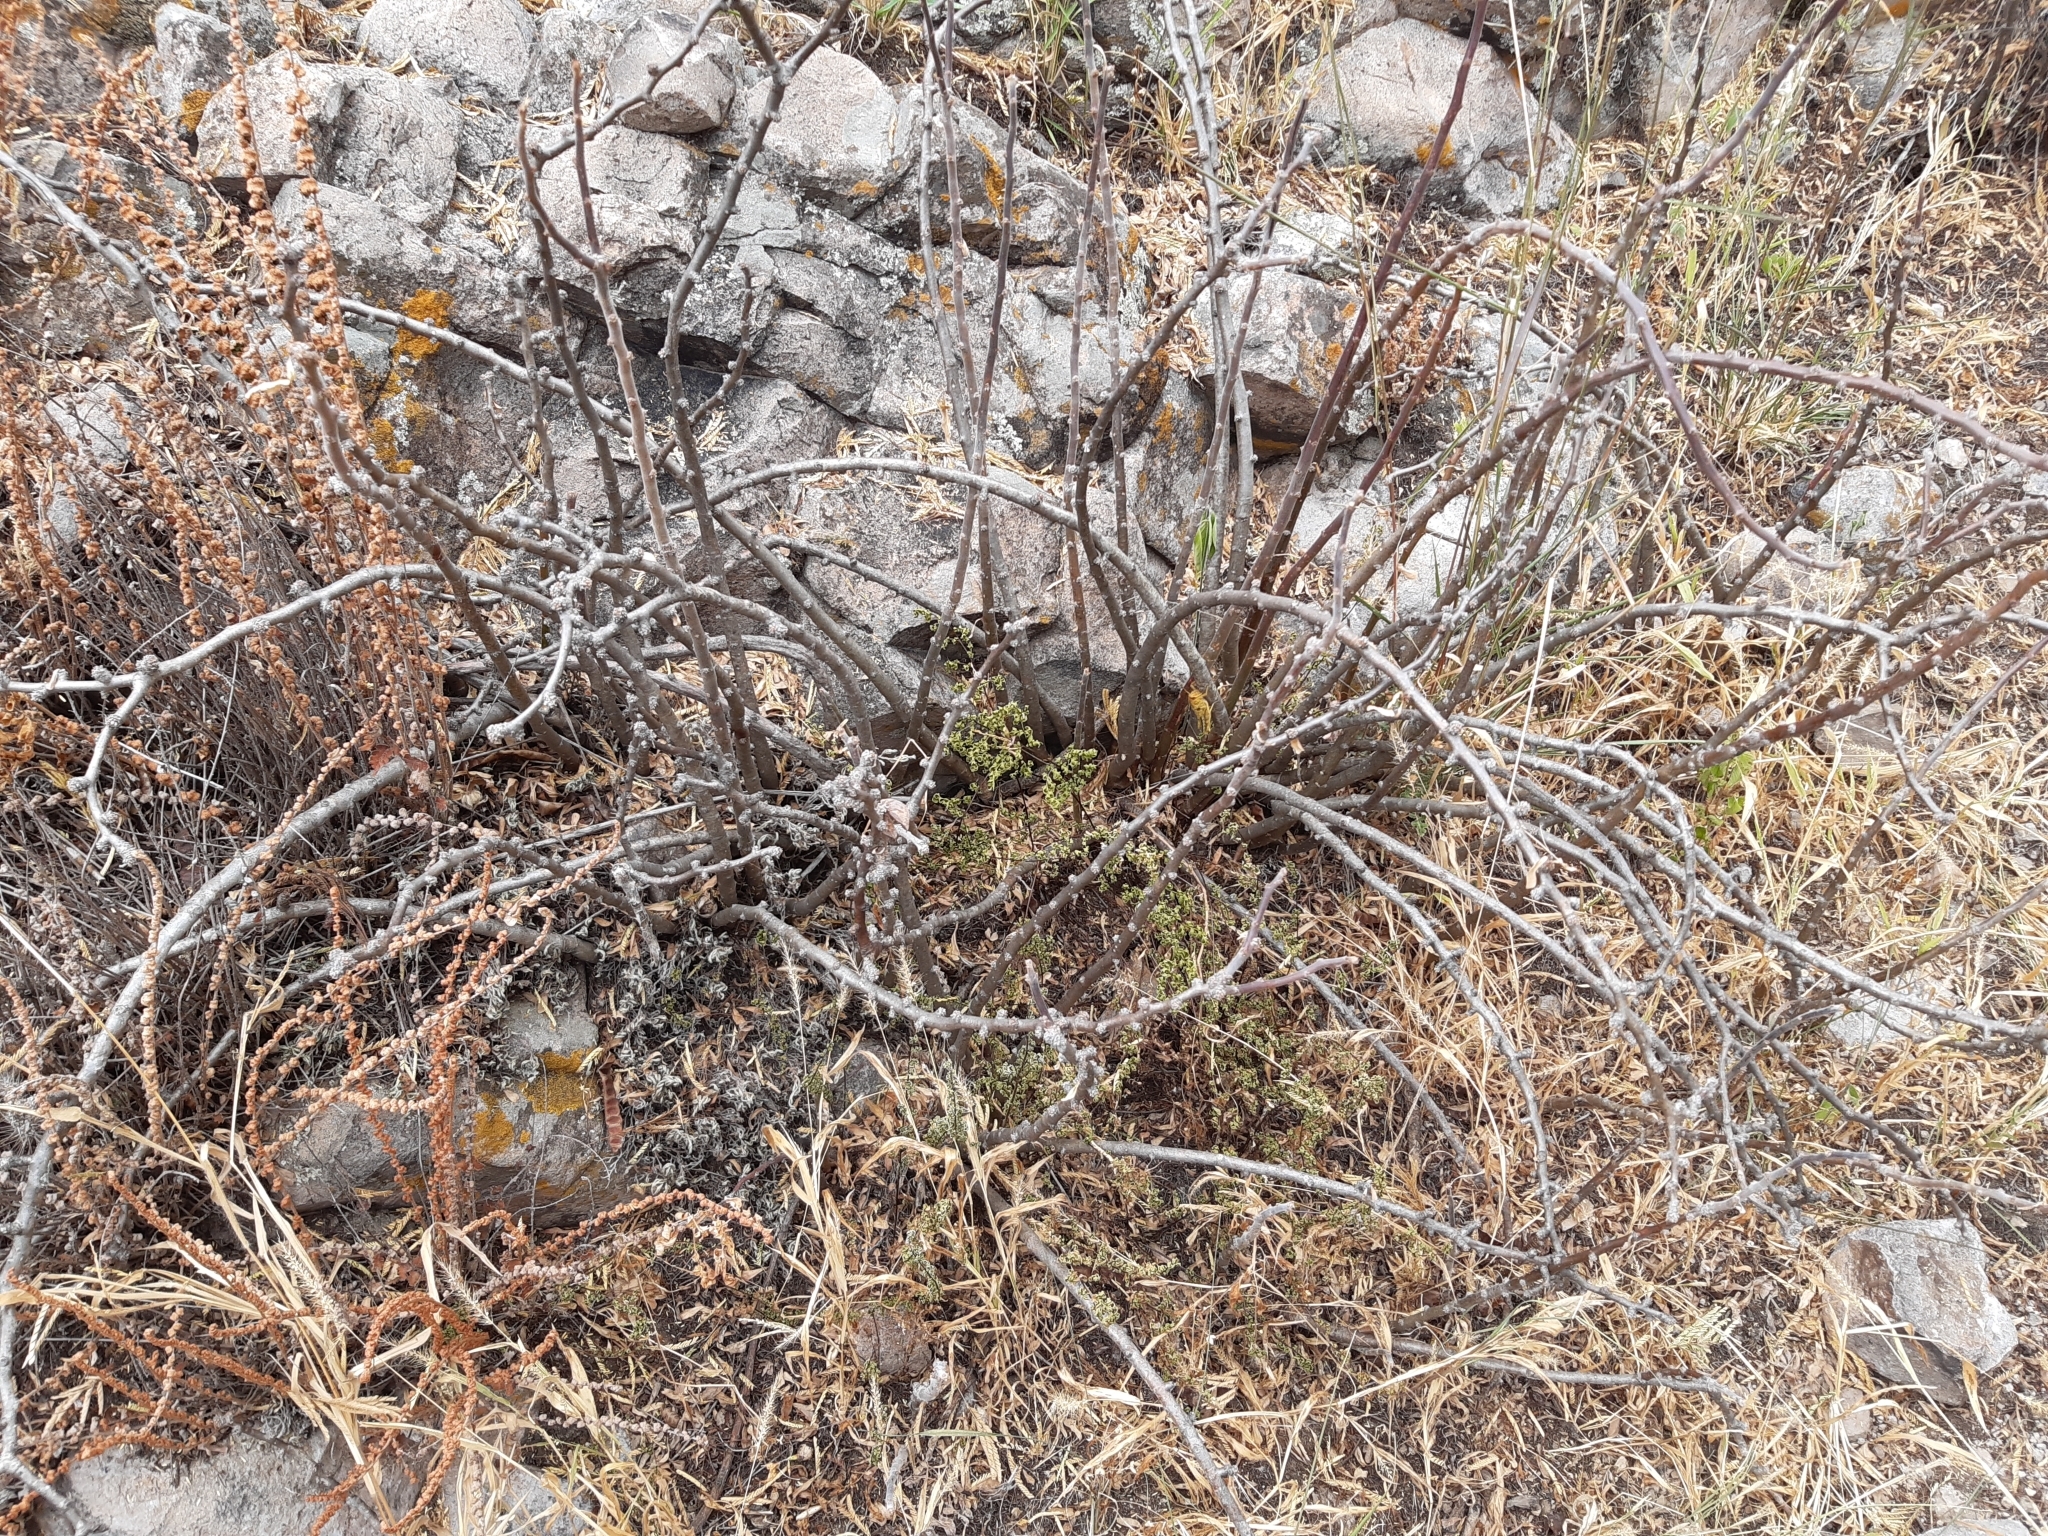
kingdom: Plantae
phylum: Tracheophyta
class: Magnoliopsida
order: Malpighiales
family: Euphorbiaceae
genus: Jatropha
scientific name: Jatropha dioica
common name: Leatherstem
